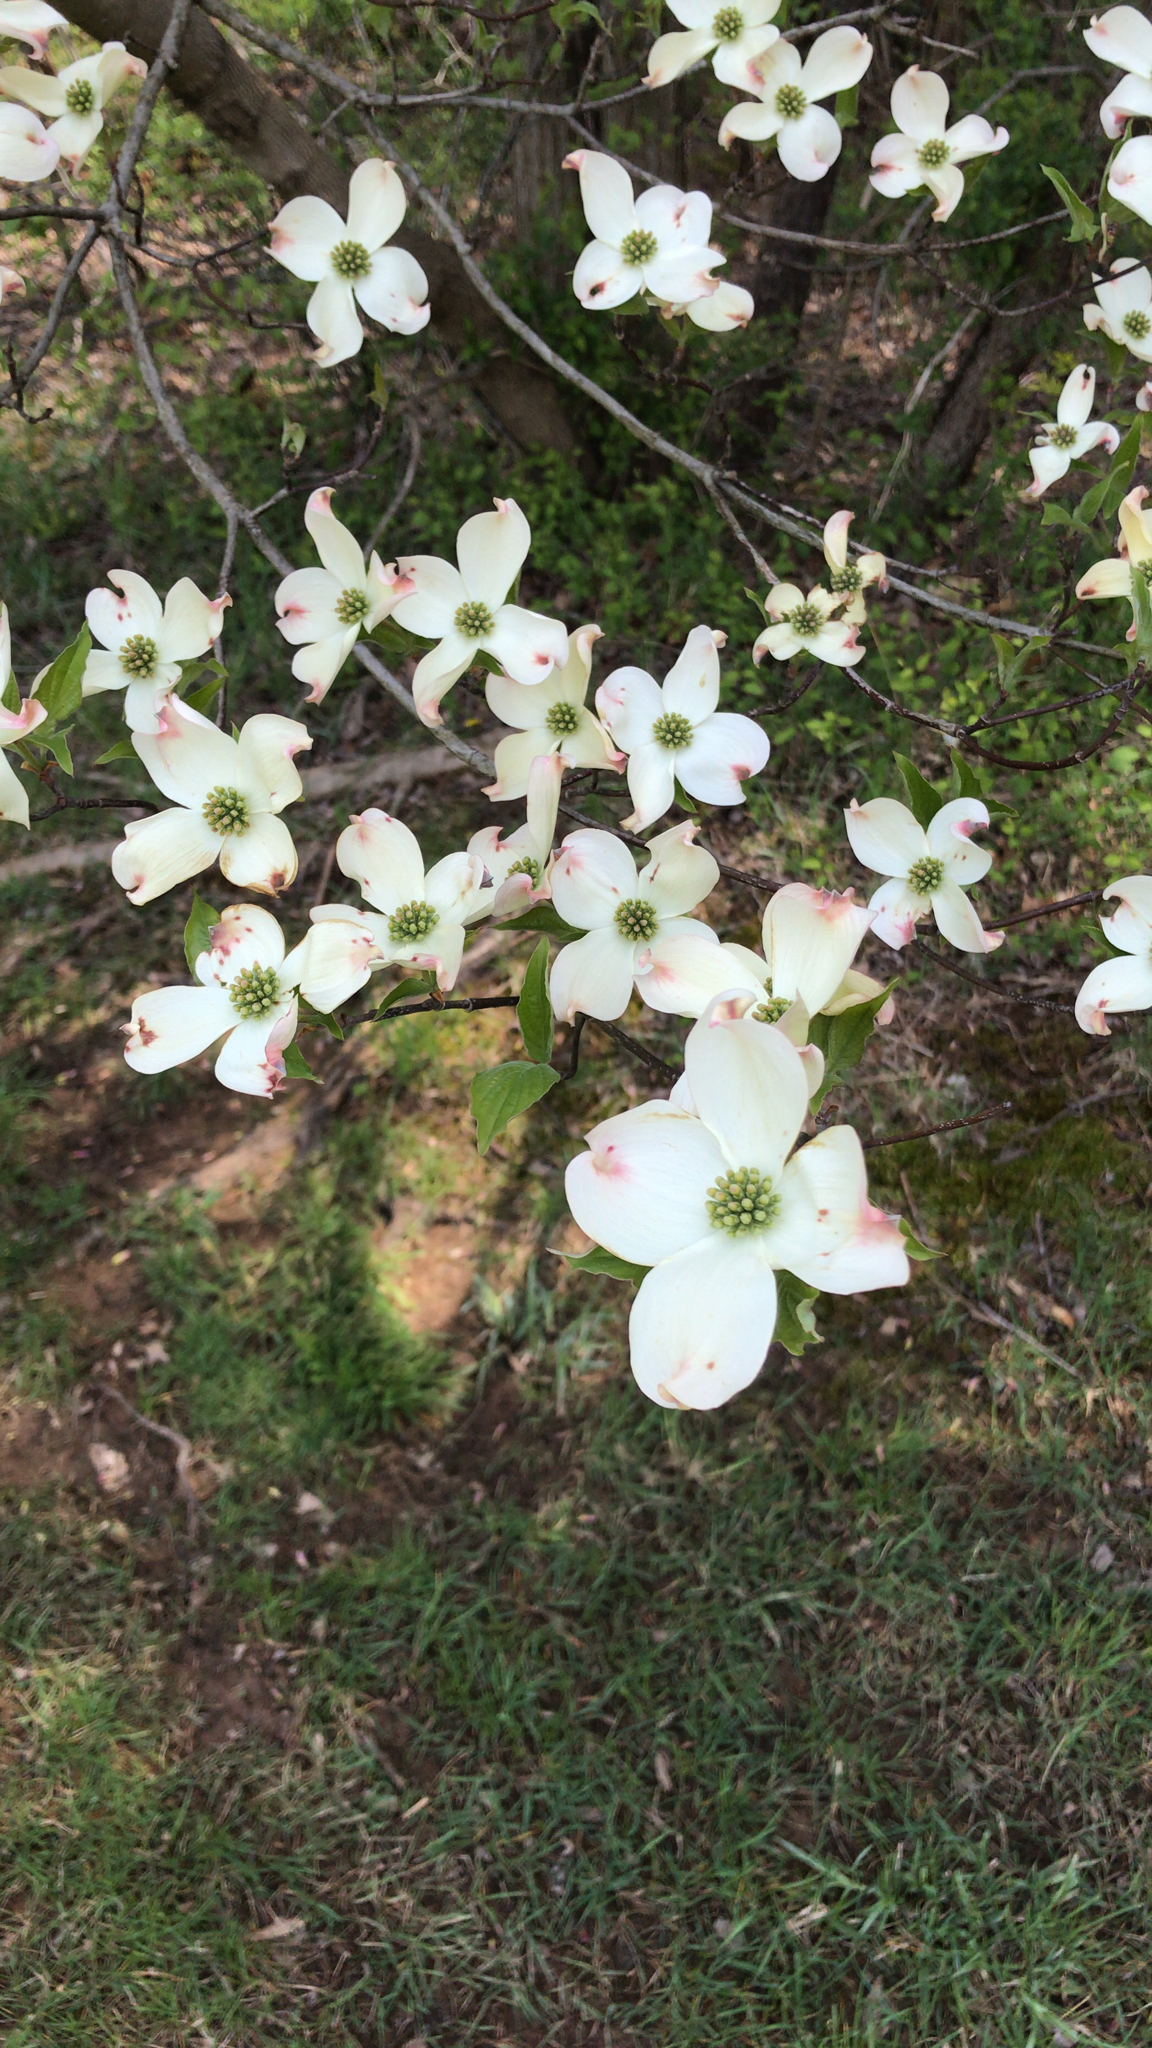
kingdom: Plantae
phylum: Tracheophyta
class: Magnoliopsida
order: Cornales
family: Cornaceae
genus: Cornus
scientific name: Cornus florida
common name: Flowering dogwood
